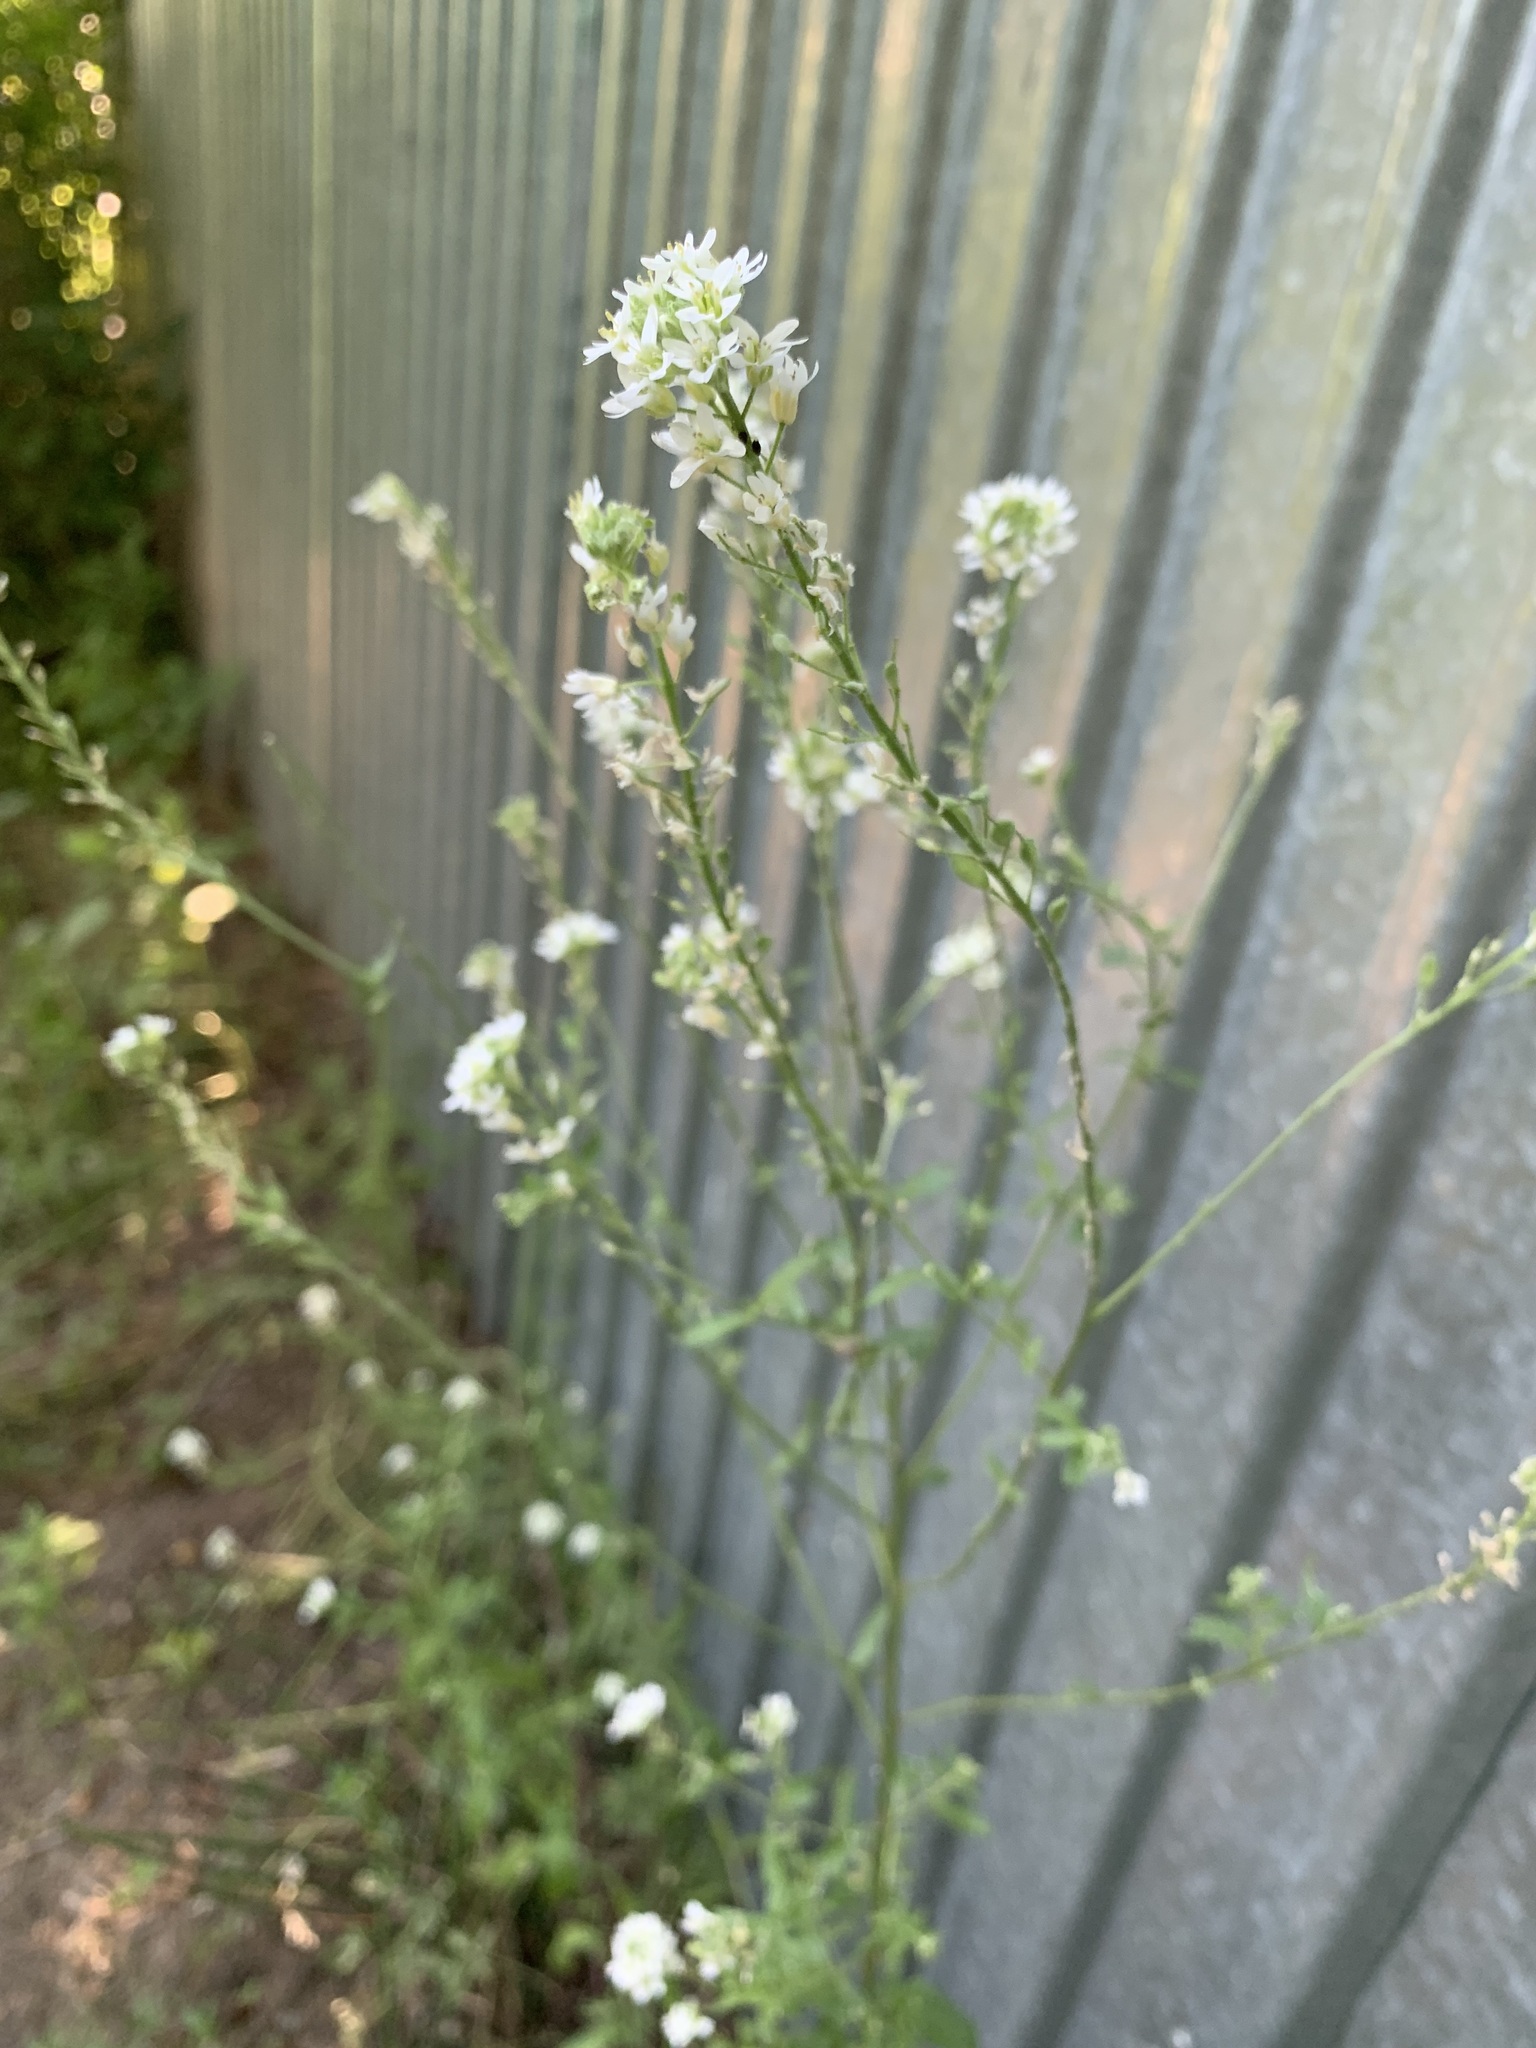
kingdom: Plantae
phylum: Tracheophyta
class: Magnoliopsida
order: Brassicales
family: Brassicaceae
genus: Berteroa
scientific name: Berteroa incana
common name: Hoary alison
